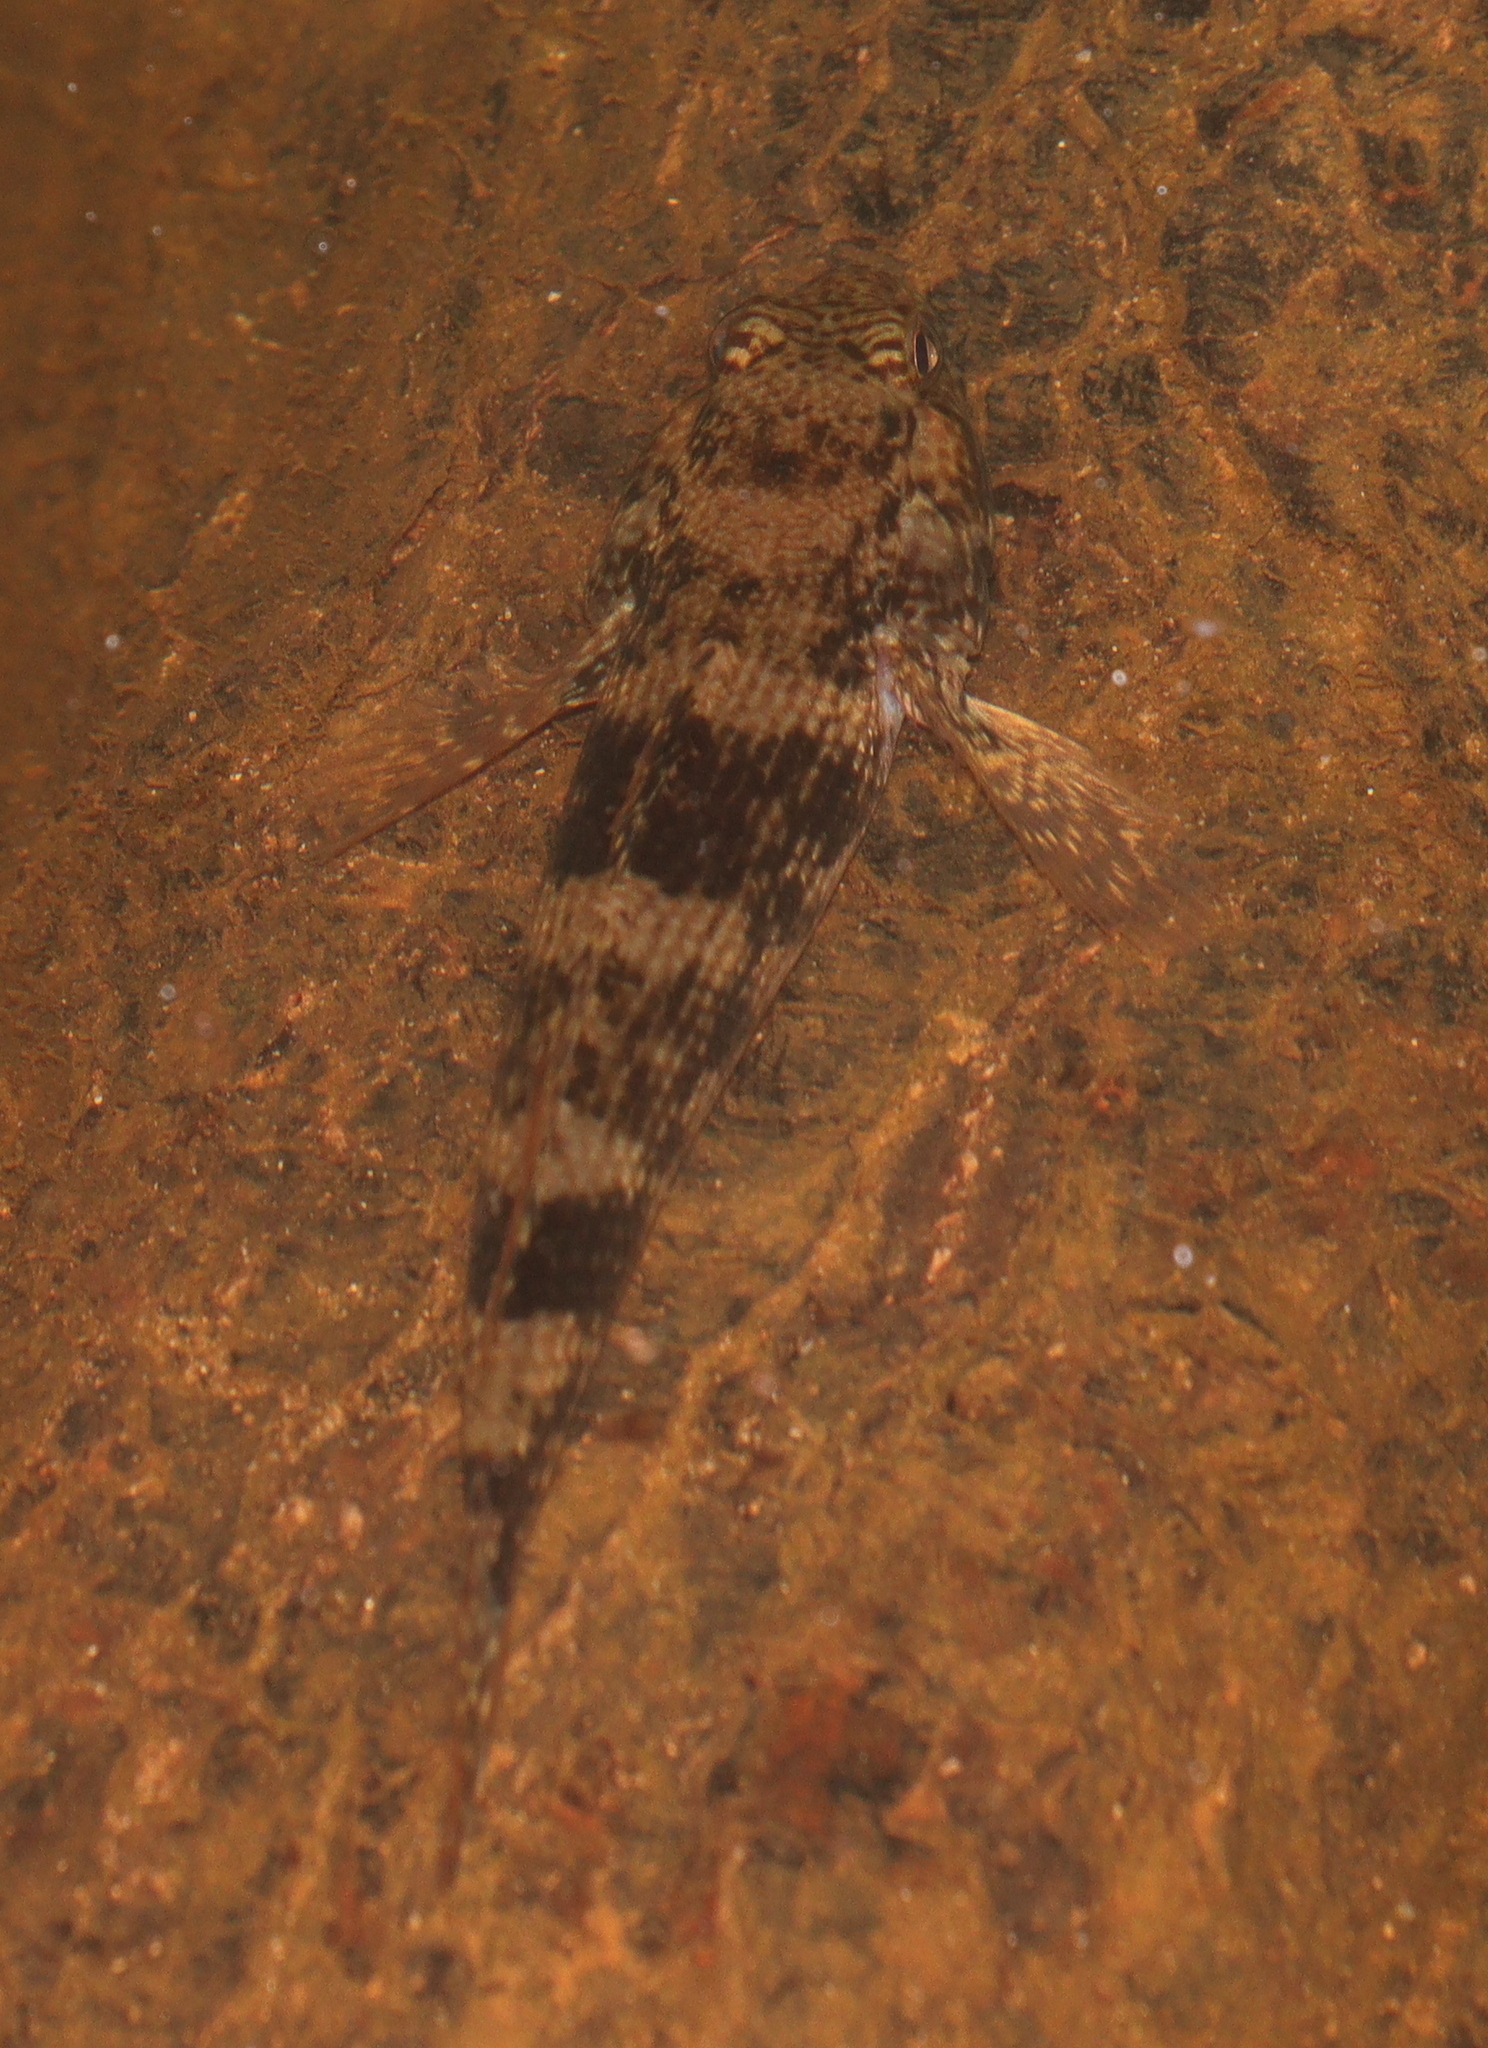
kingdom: Animalia
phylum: Chordata
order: Perciformes
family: Gobiidae
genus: Bathygobius
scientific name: Bathygobius soporator
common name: Frillfin goby
